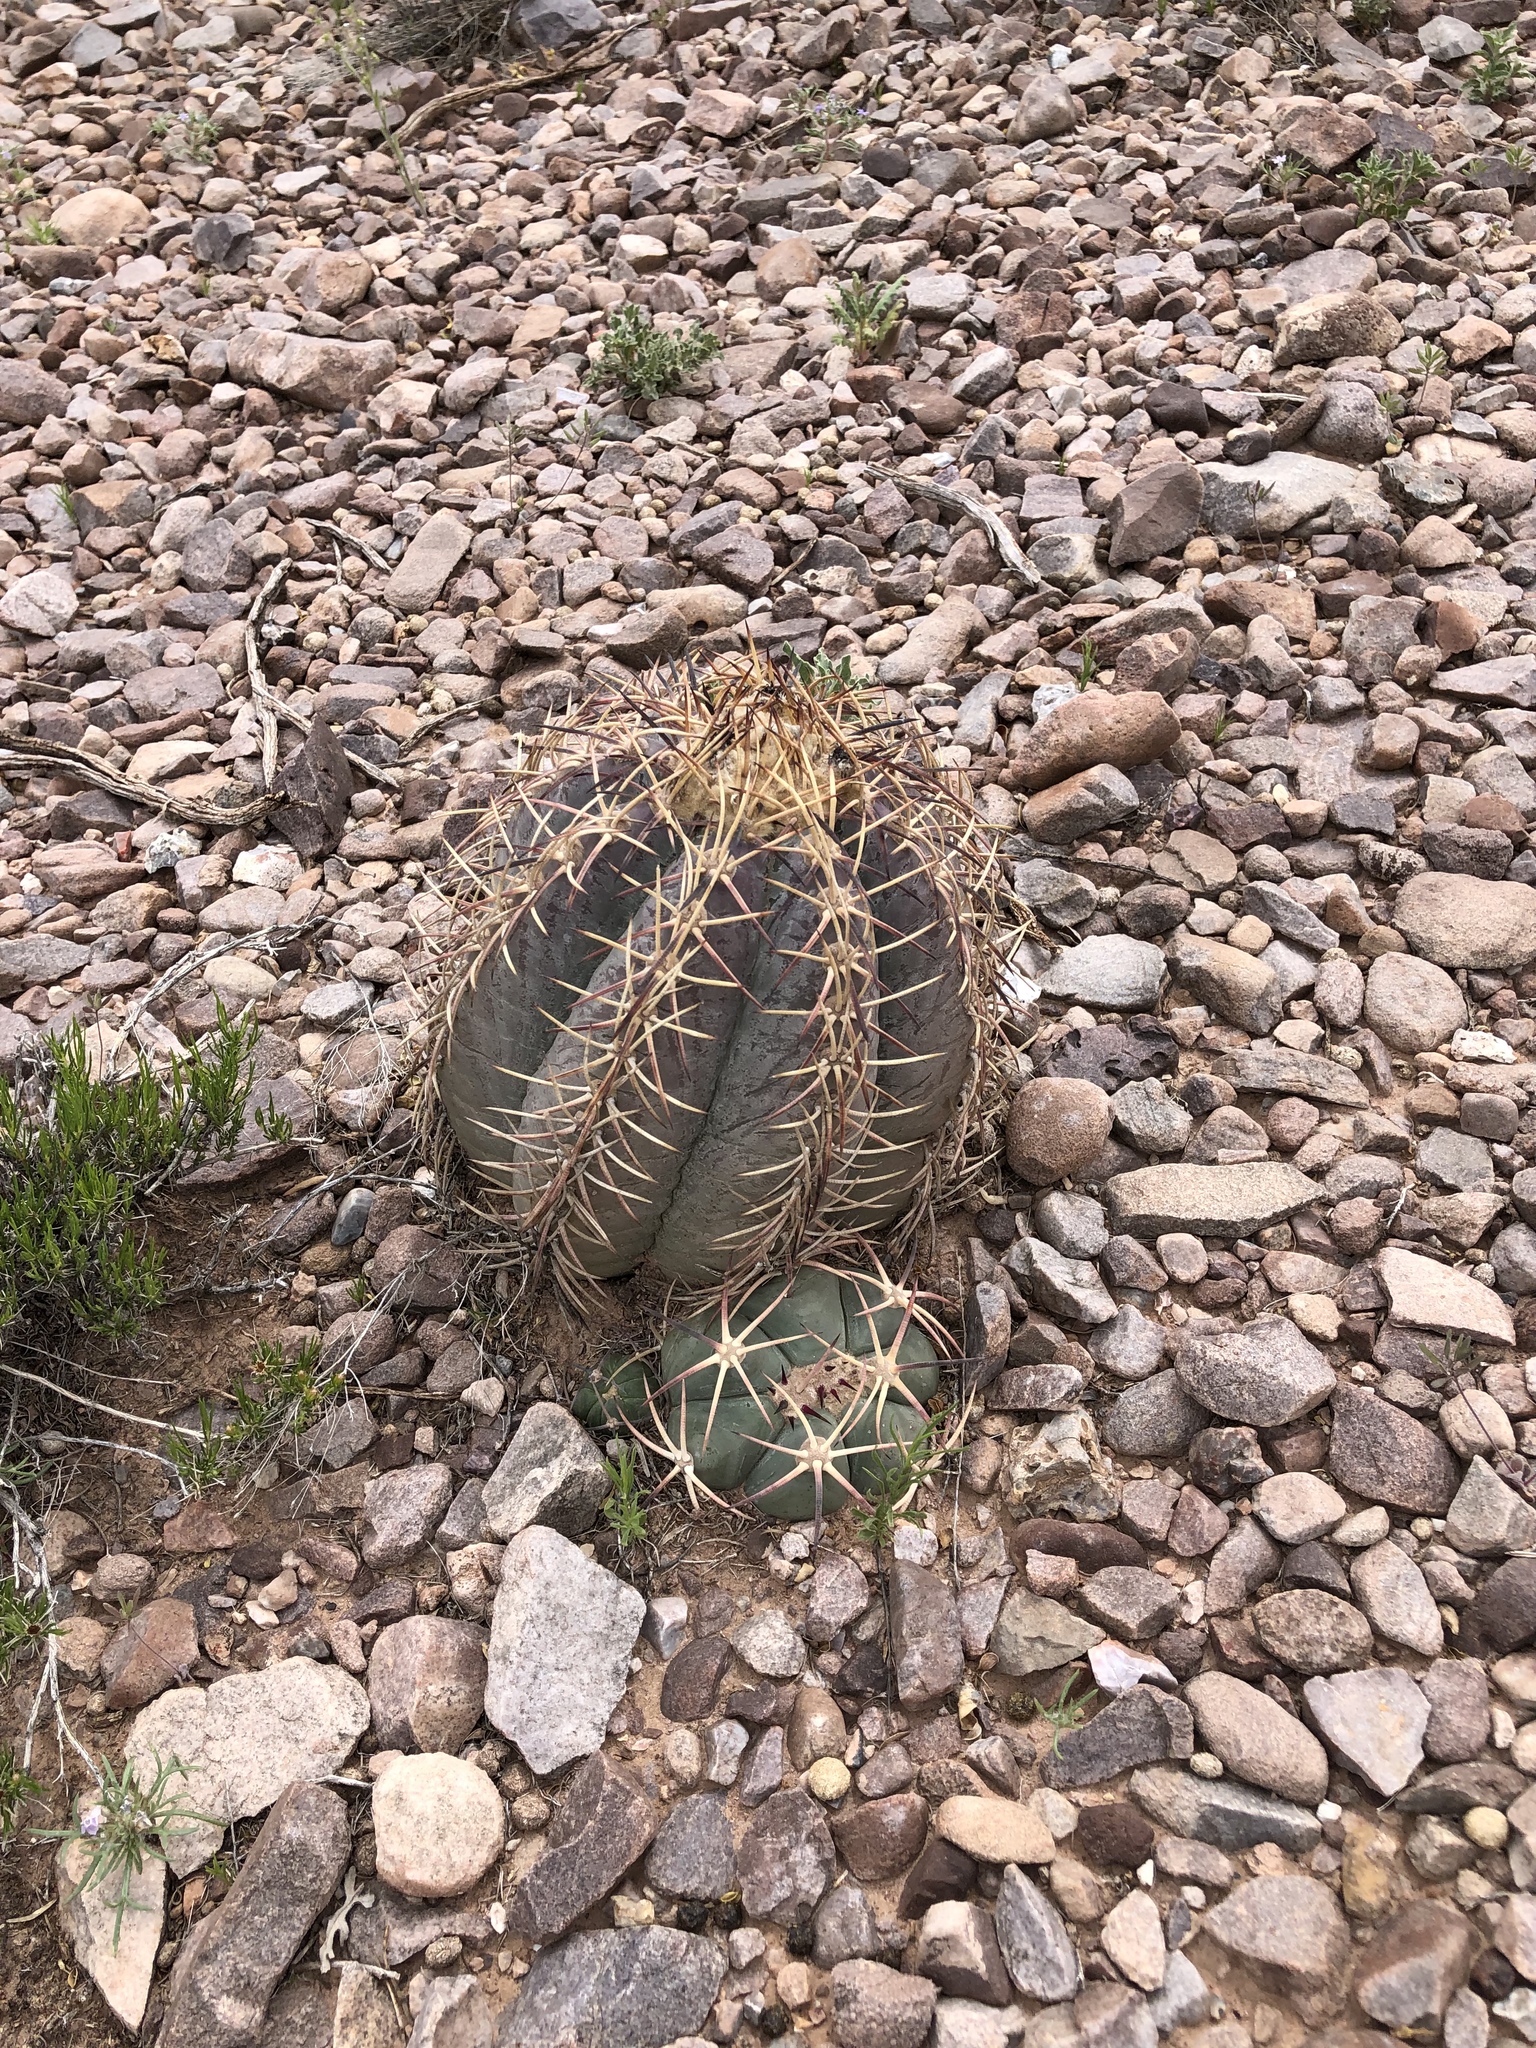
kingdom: Plantae
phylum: Tracheophyta
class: Magnoliopsida
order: Caryophyllales
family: Cactaceae
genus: Echinocactus
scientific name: Echinocactus horizonthalonius
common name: Devilshead
